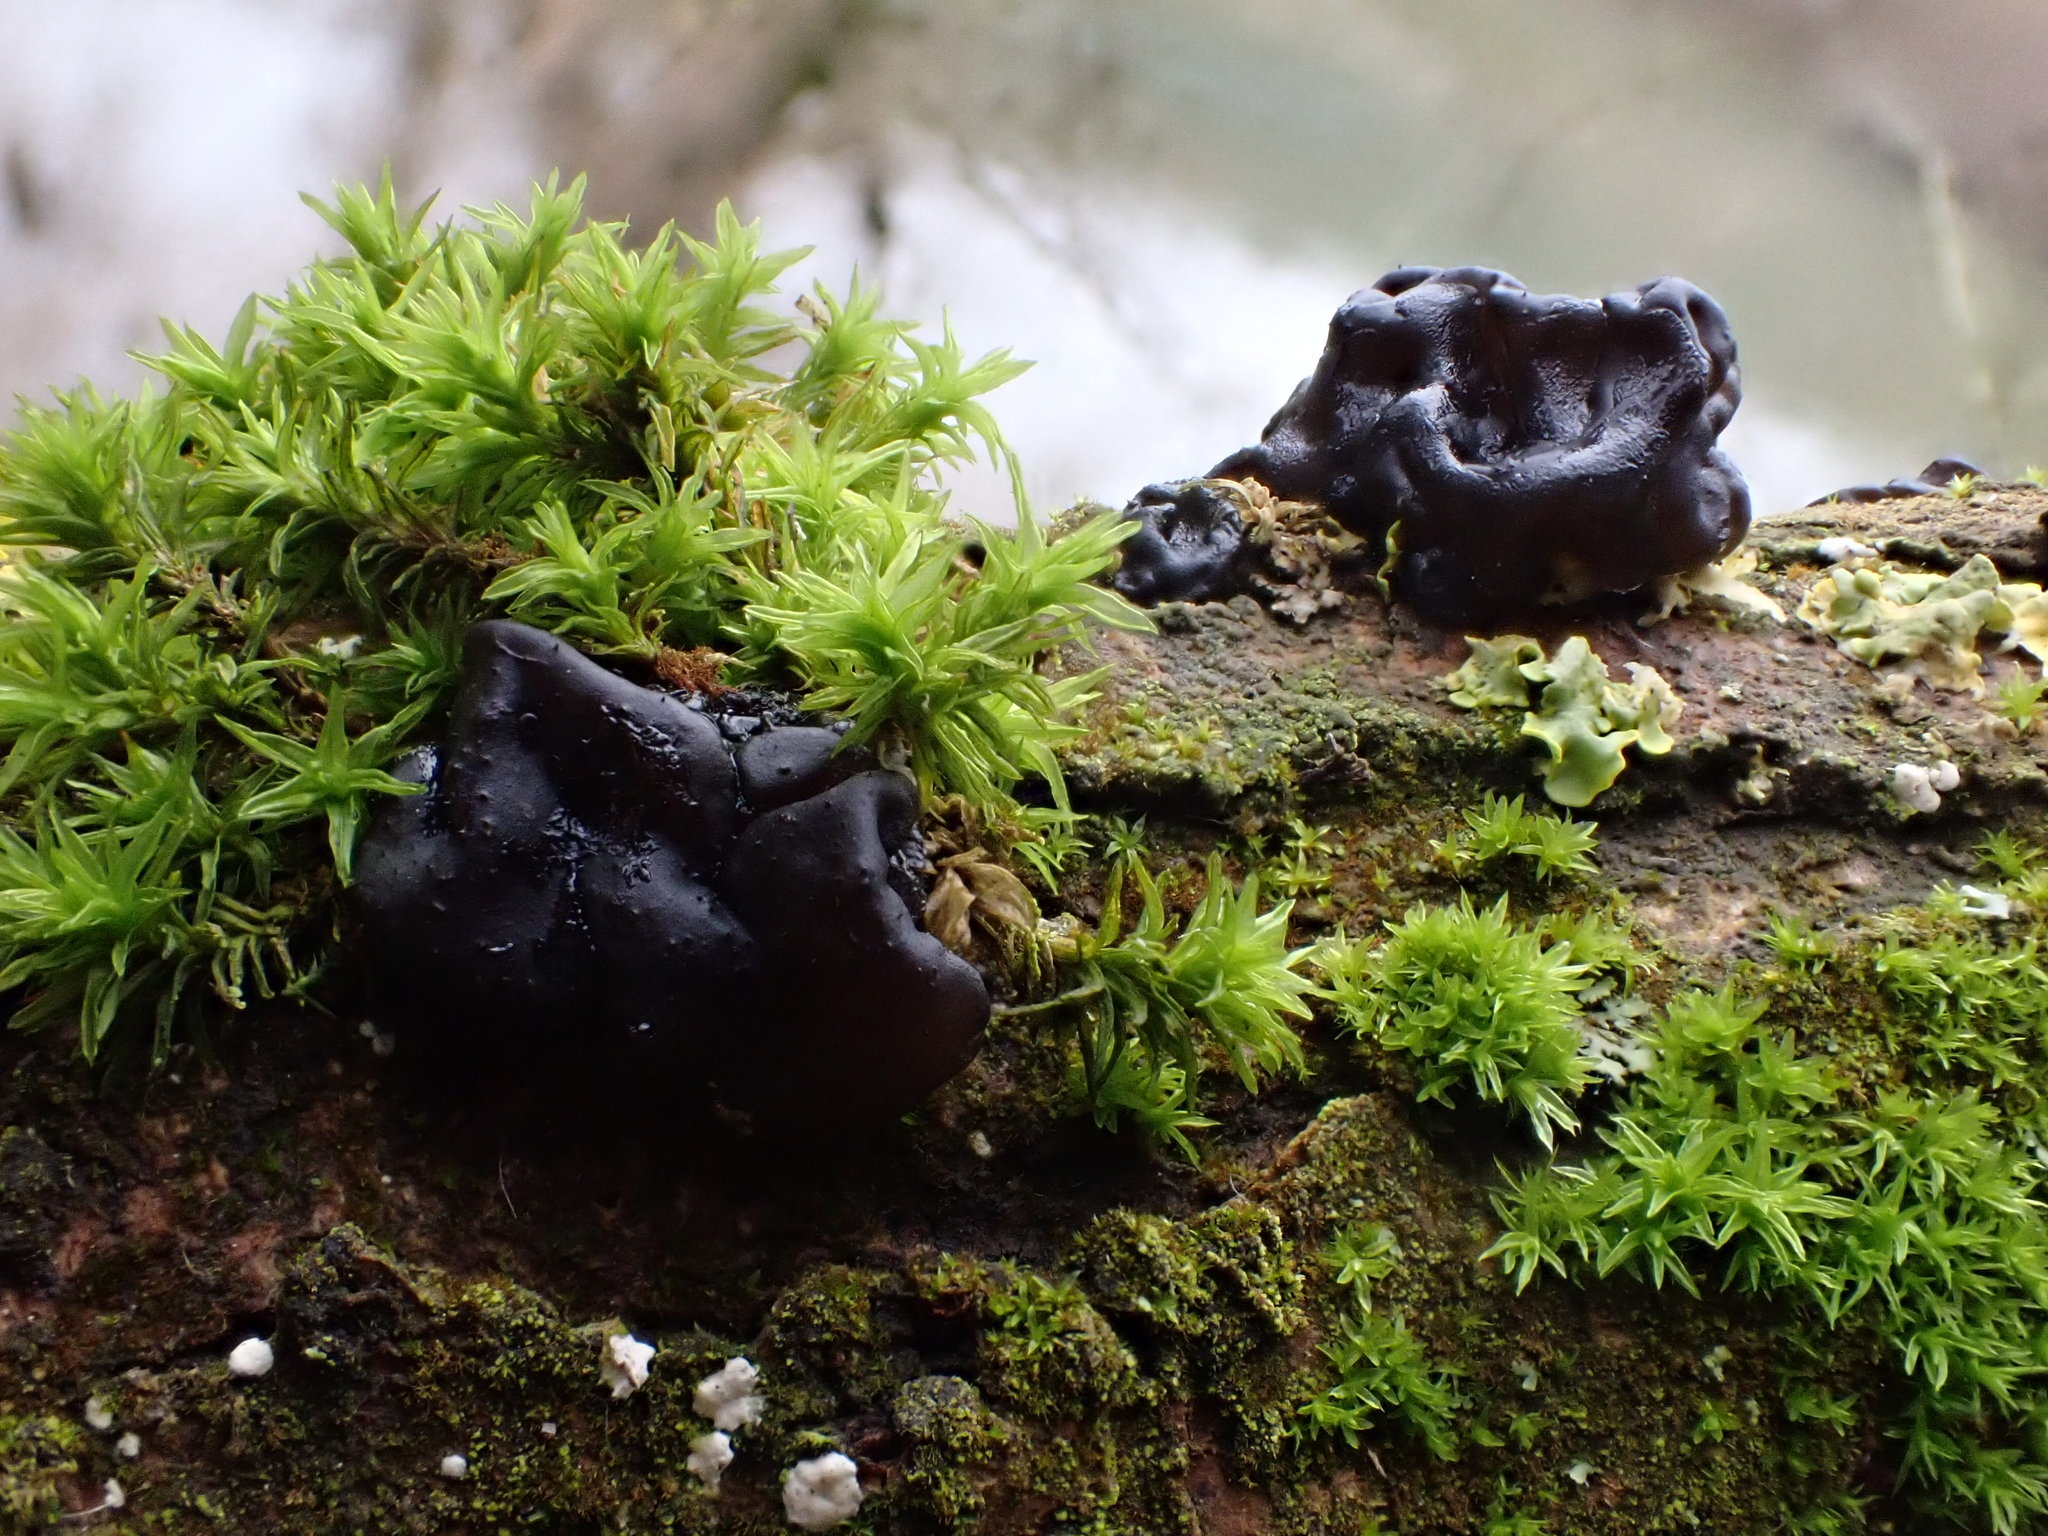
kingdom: Fungi
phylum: Basidiomycota
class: Agaricomycetes
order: Auriculariales
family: Auriculariaceae
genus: Exidia
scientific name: Exidia nigricans
